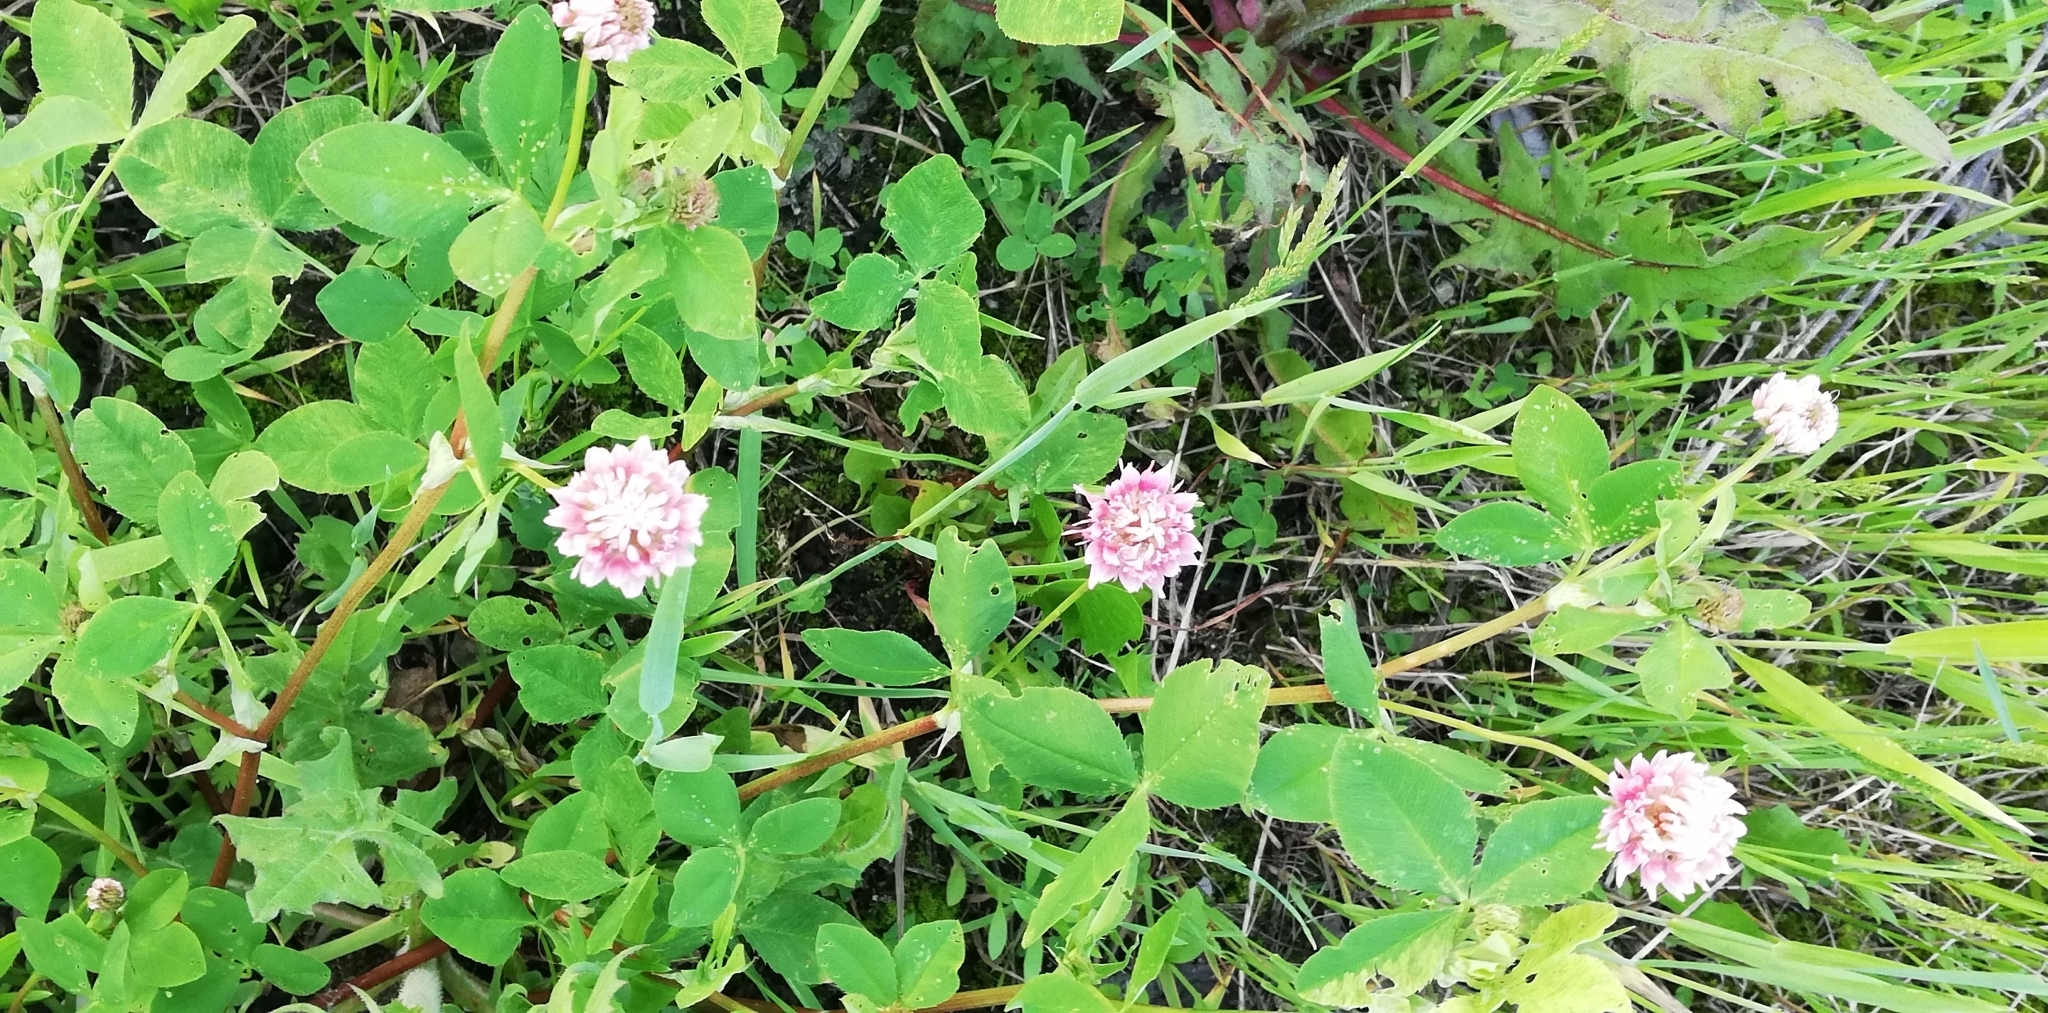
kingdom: Plantae
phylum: Tracheophyta
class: Magnoliopsida
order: Fabales
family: Fabaceae
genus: Trifolium
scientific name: Trifolium hybridum
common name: Alsike clover
